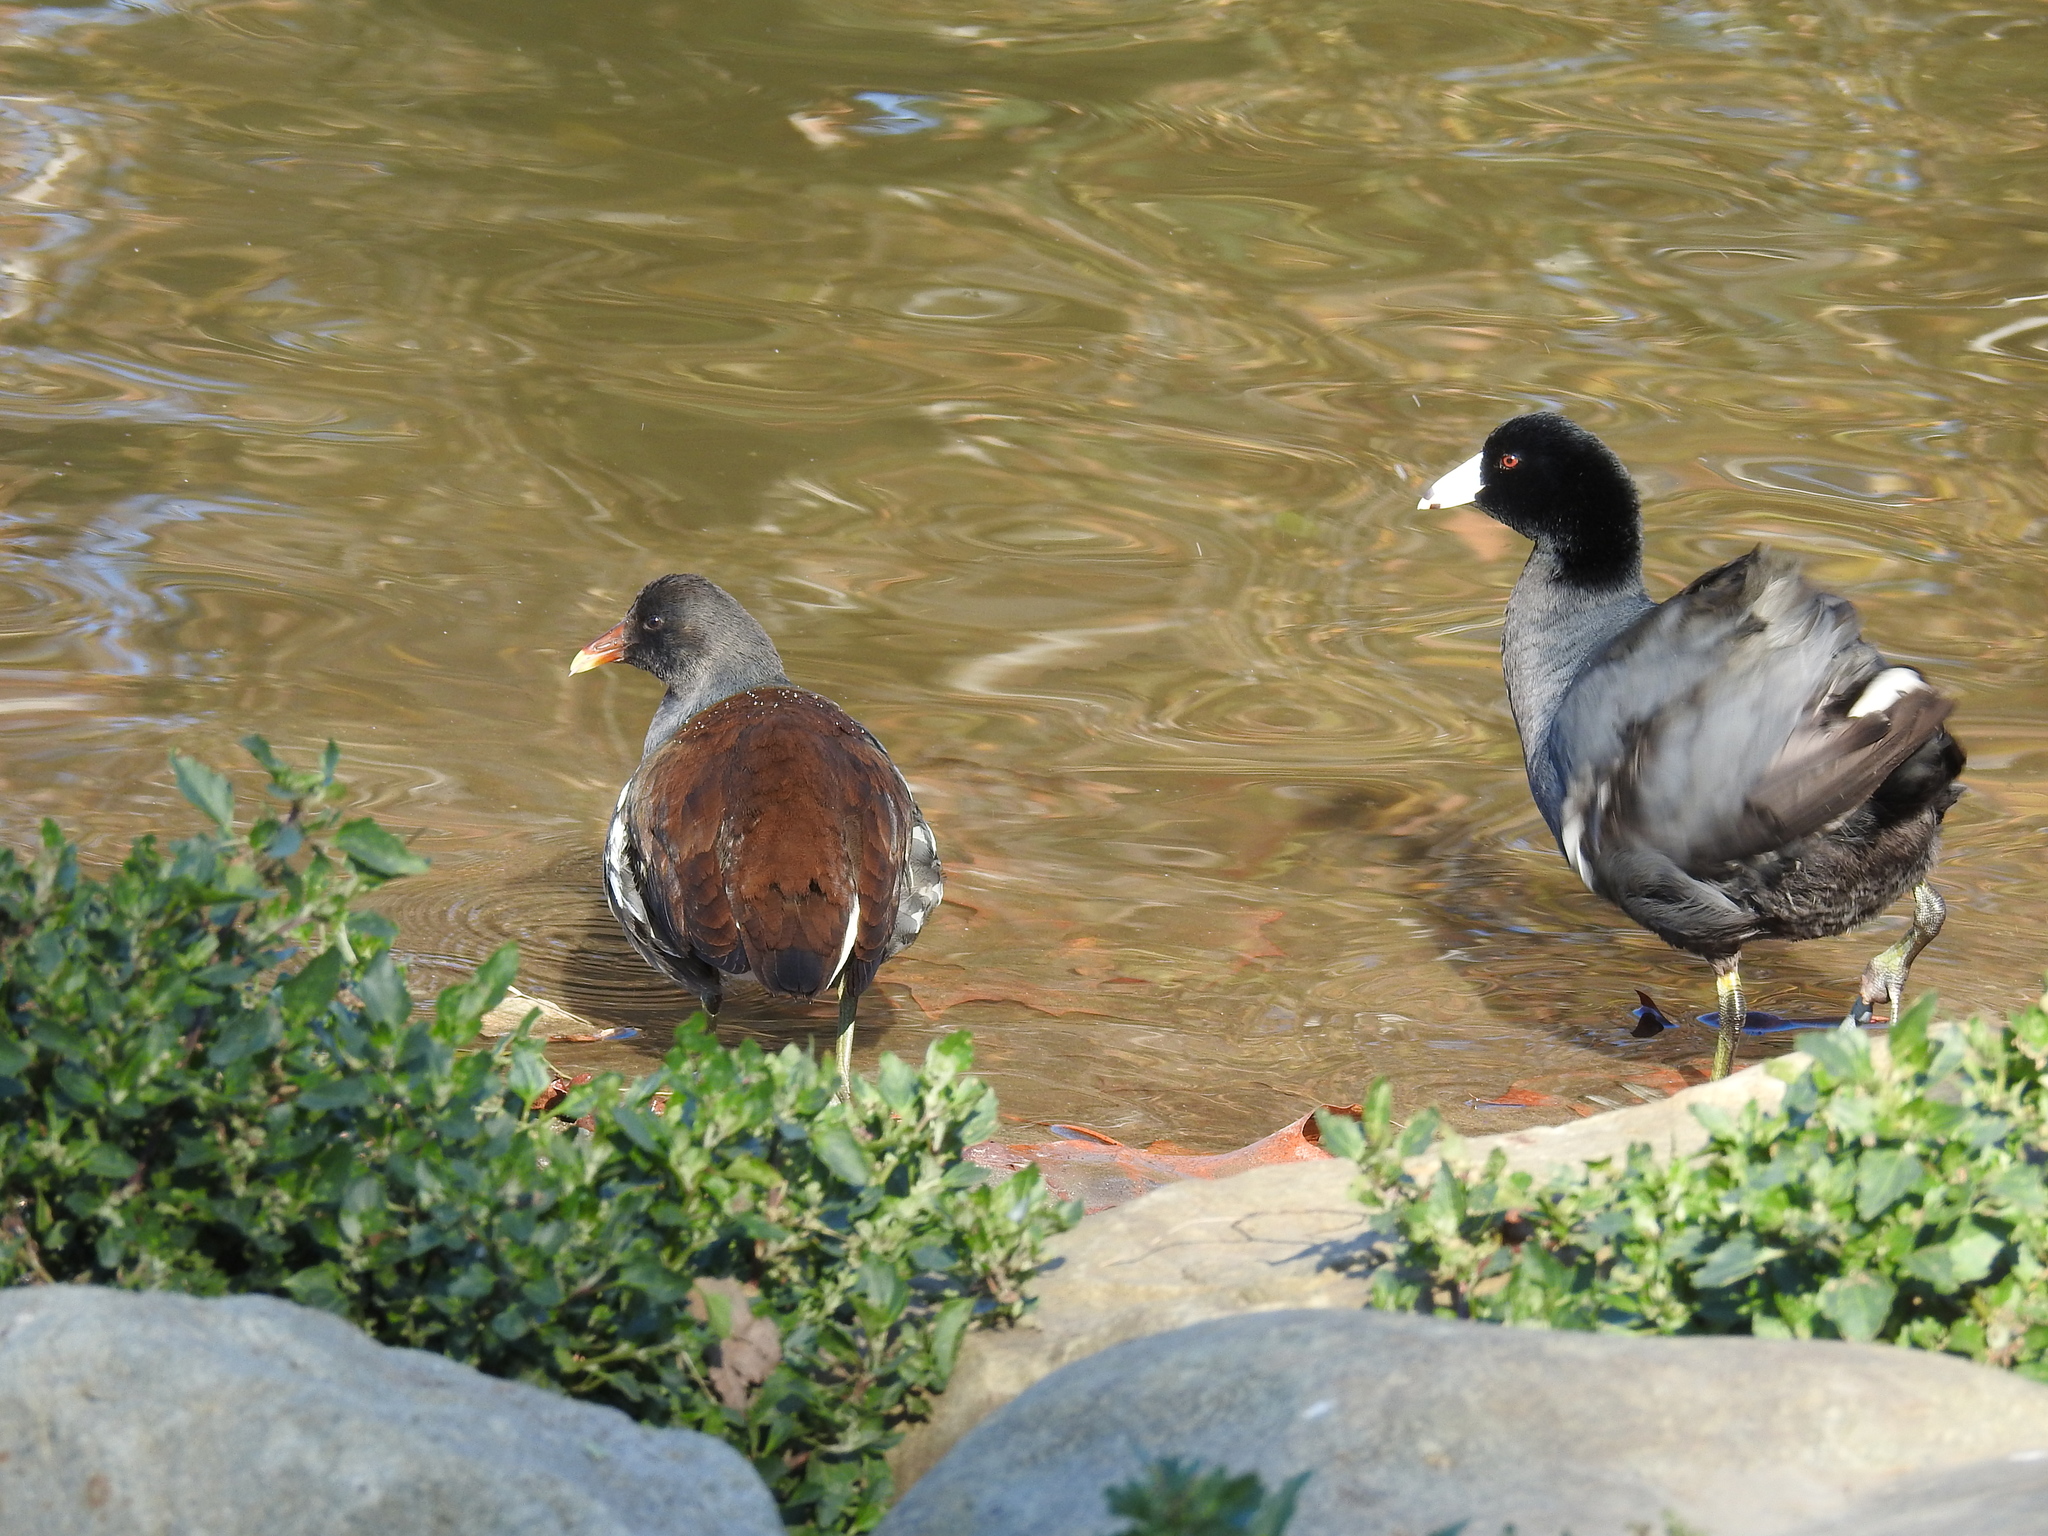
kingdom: Animalia
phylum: Chordata
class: Aves
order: Gruiformes
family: Rallidae
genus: Fulica
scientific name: Fulica americana
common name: American coot
